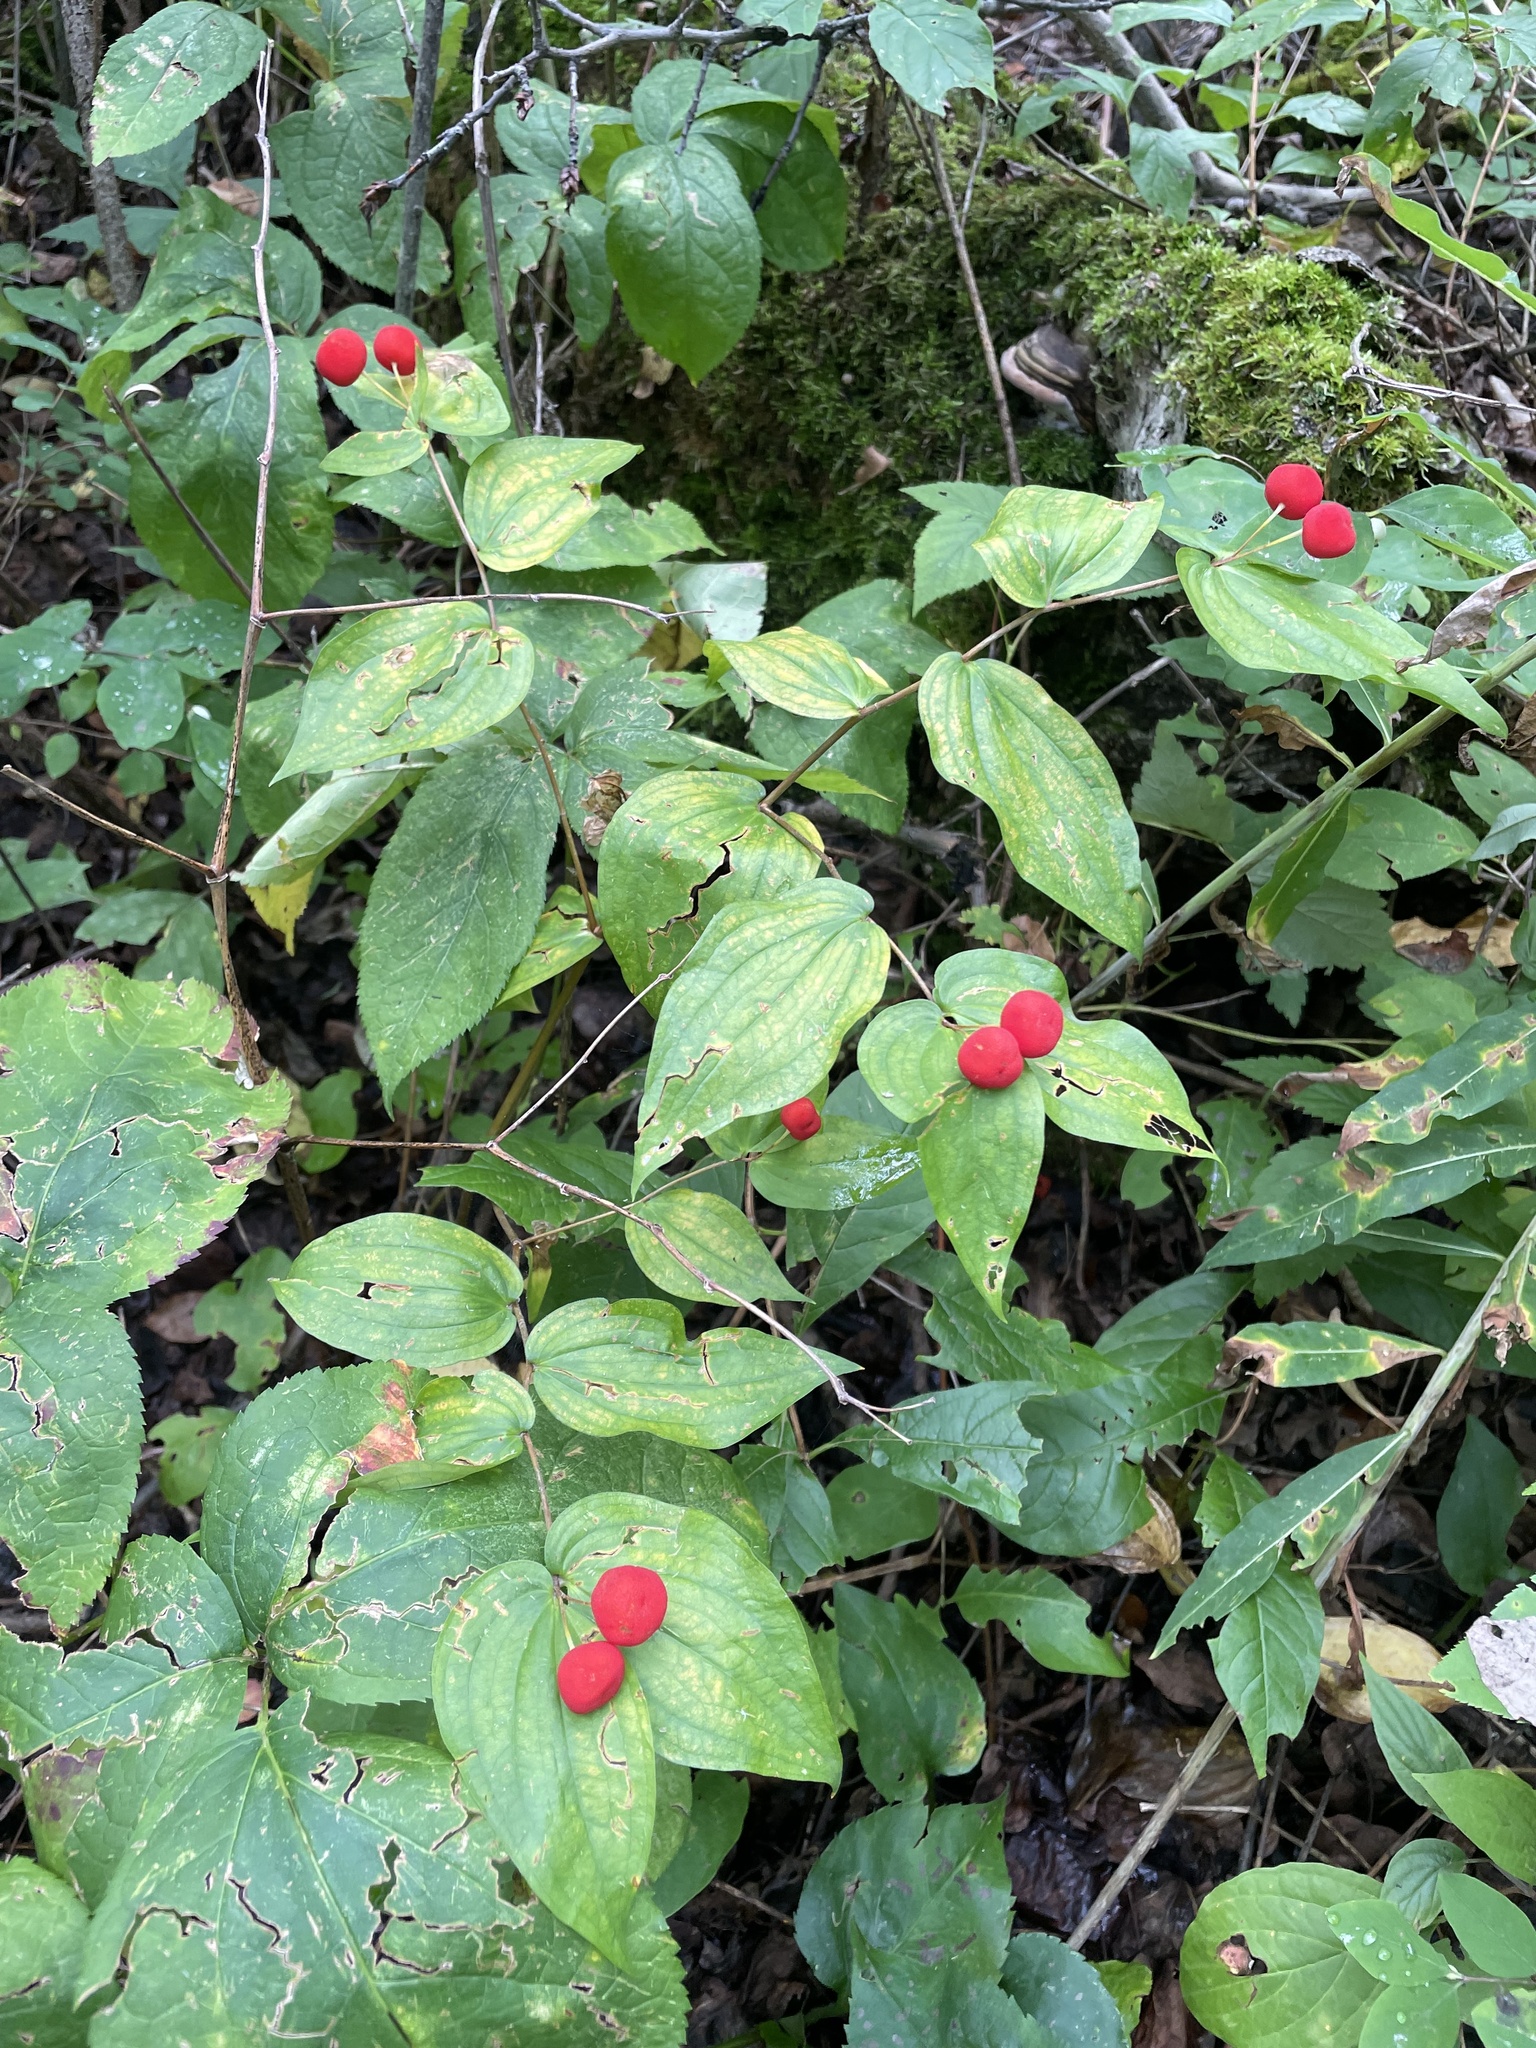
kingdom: Plantae
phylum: Tracheophyta
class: Liliopsida
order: Liliales
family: Liliaceae
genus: Prosartes
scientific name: Prosartes trachycarpa
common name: Rough-fruit fairy-bells
